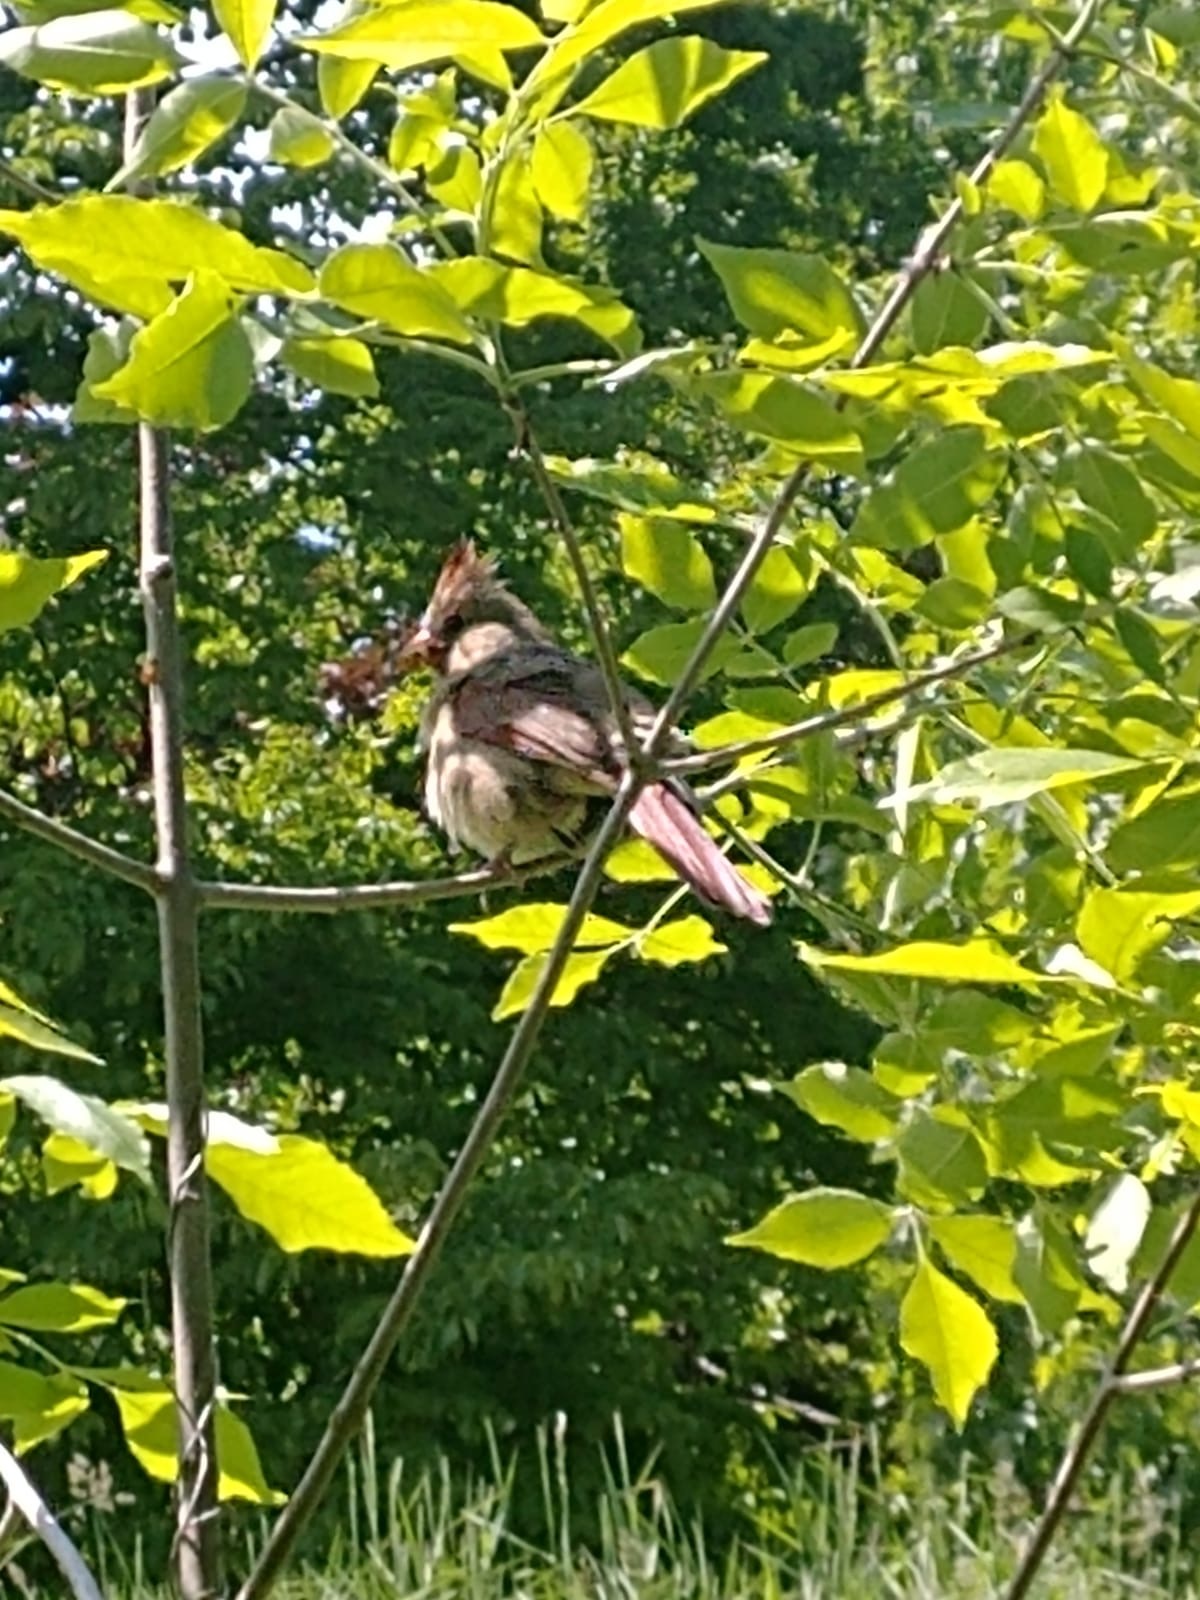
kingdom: Animalia
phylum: Chordata
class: Aves
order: Passeriformes
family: Cardinalidae
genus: Cardinalis
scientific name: Cardinalis cardinalis
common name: Northern cardinal
